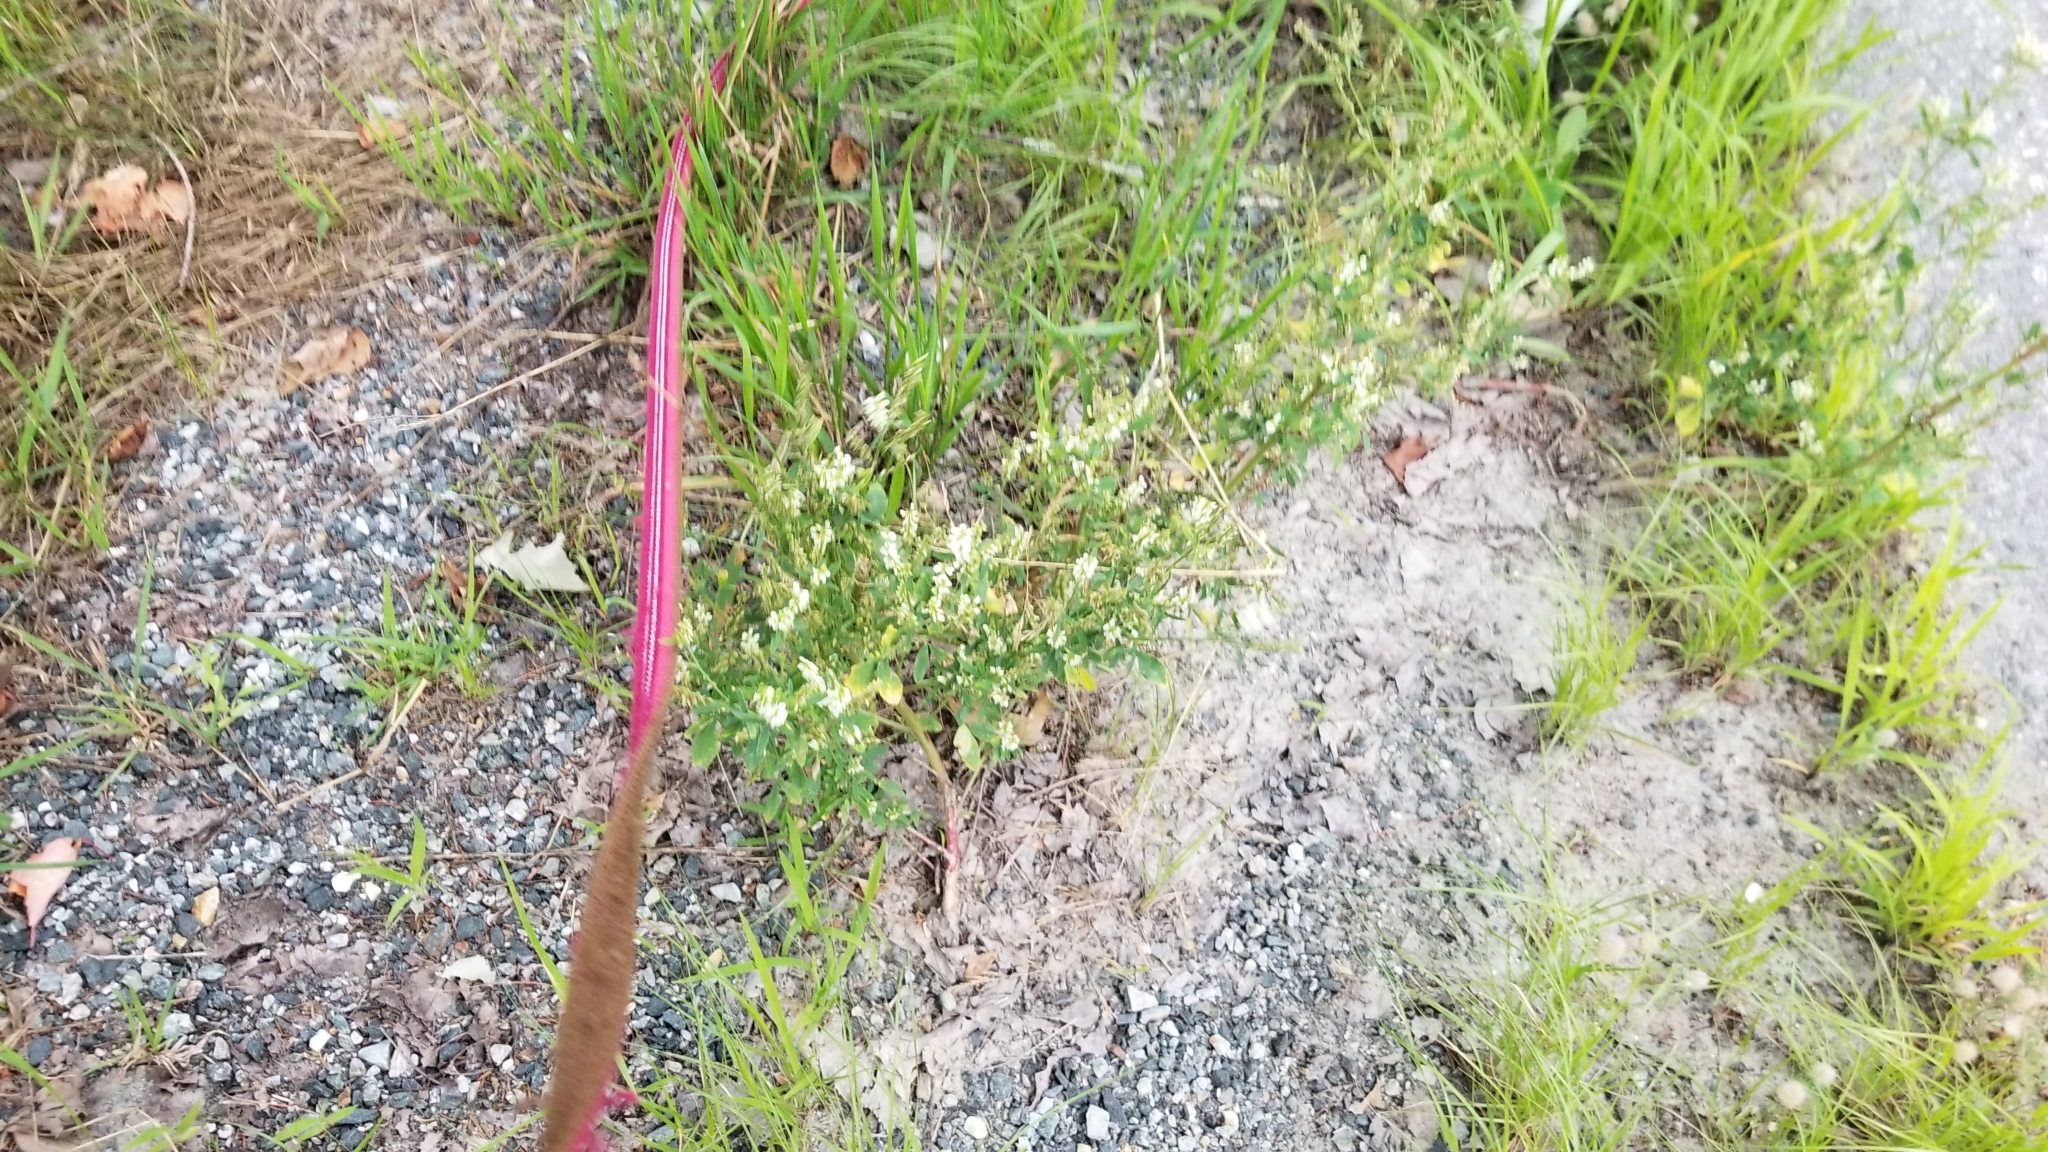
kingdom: Plantae
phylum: Tracheophyta
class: Magnoliopsida
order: Fabales
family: Fabaceae
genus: Melilotus
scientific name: Melilotus albus
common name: White melilot
